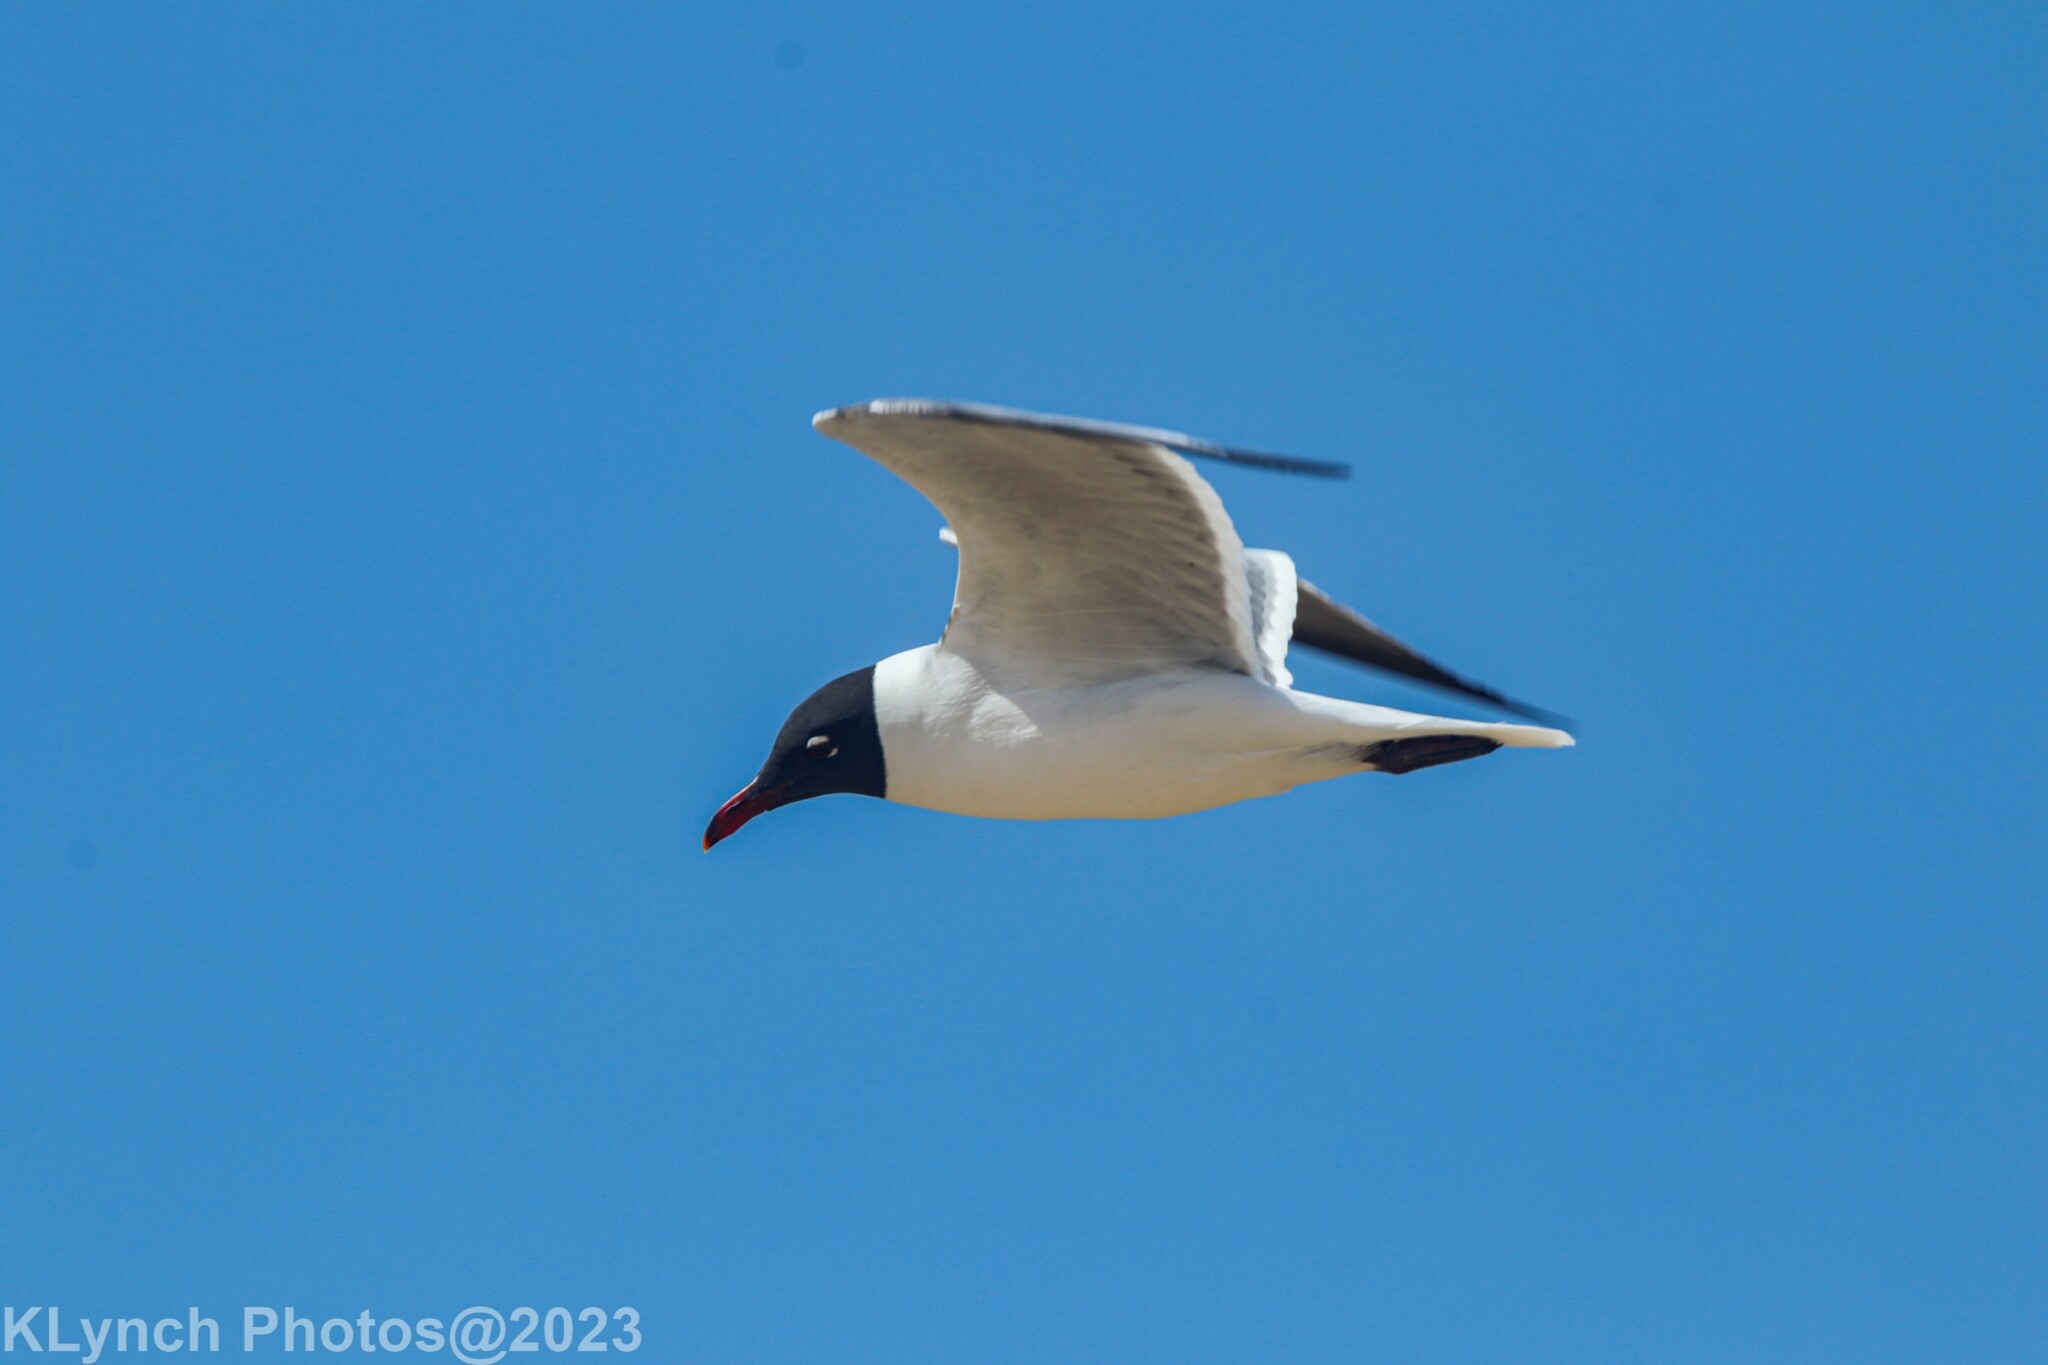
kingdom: Animalia
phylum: Chordata
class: Aves
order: Charadriiformes
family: Laridae
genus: Leucophaeus
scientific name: Leucophaeus atricilla
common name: Laughing gull
